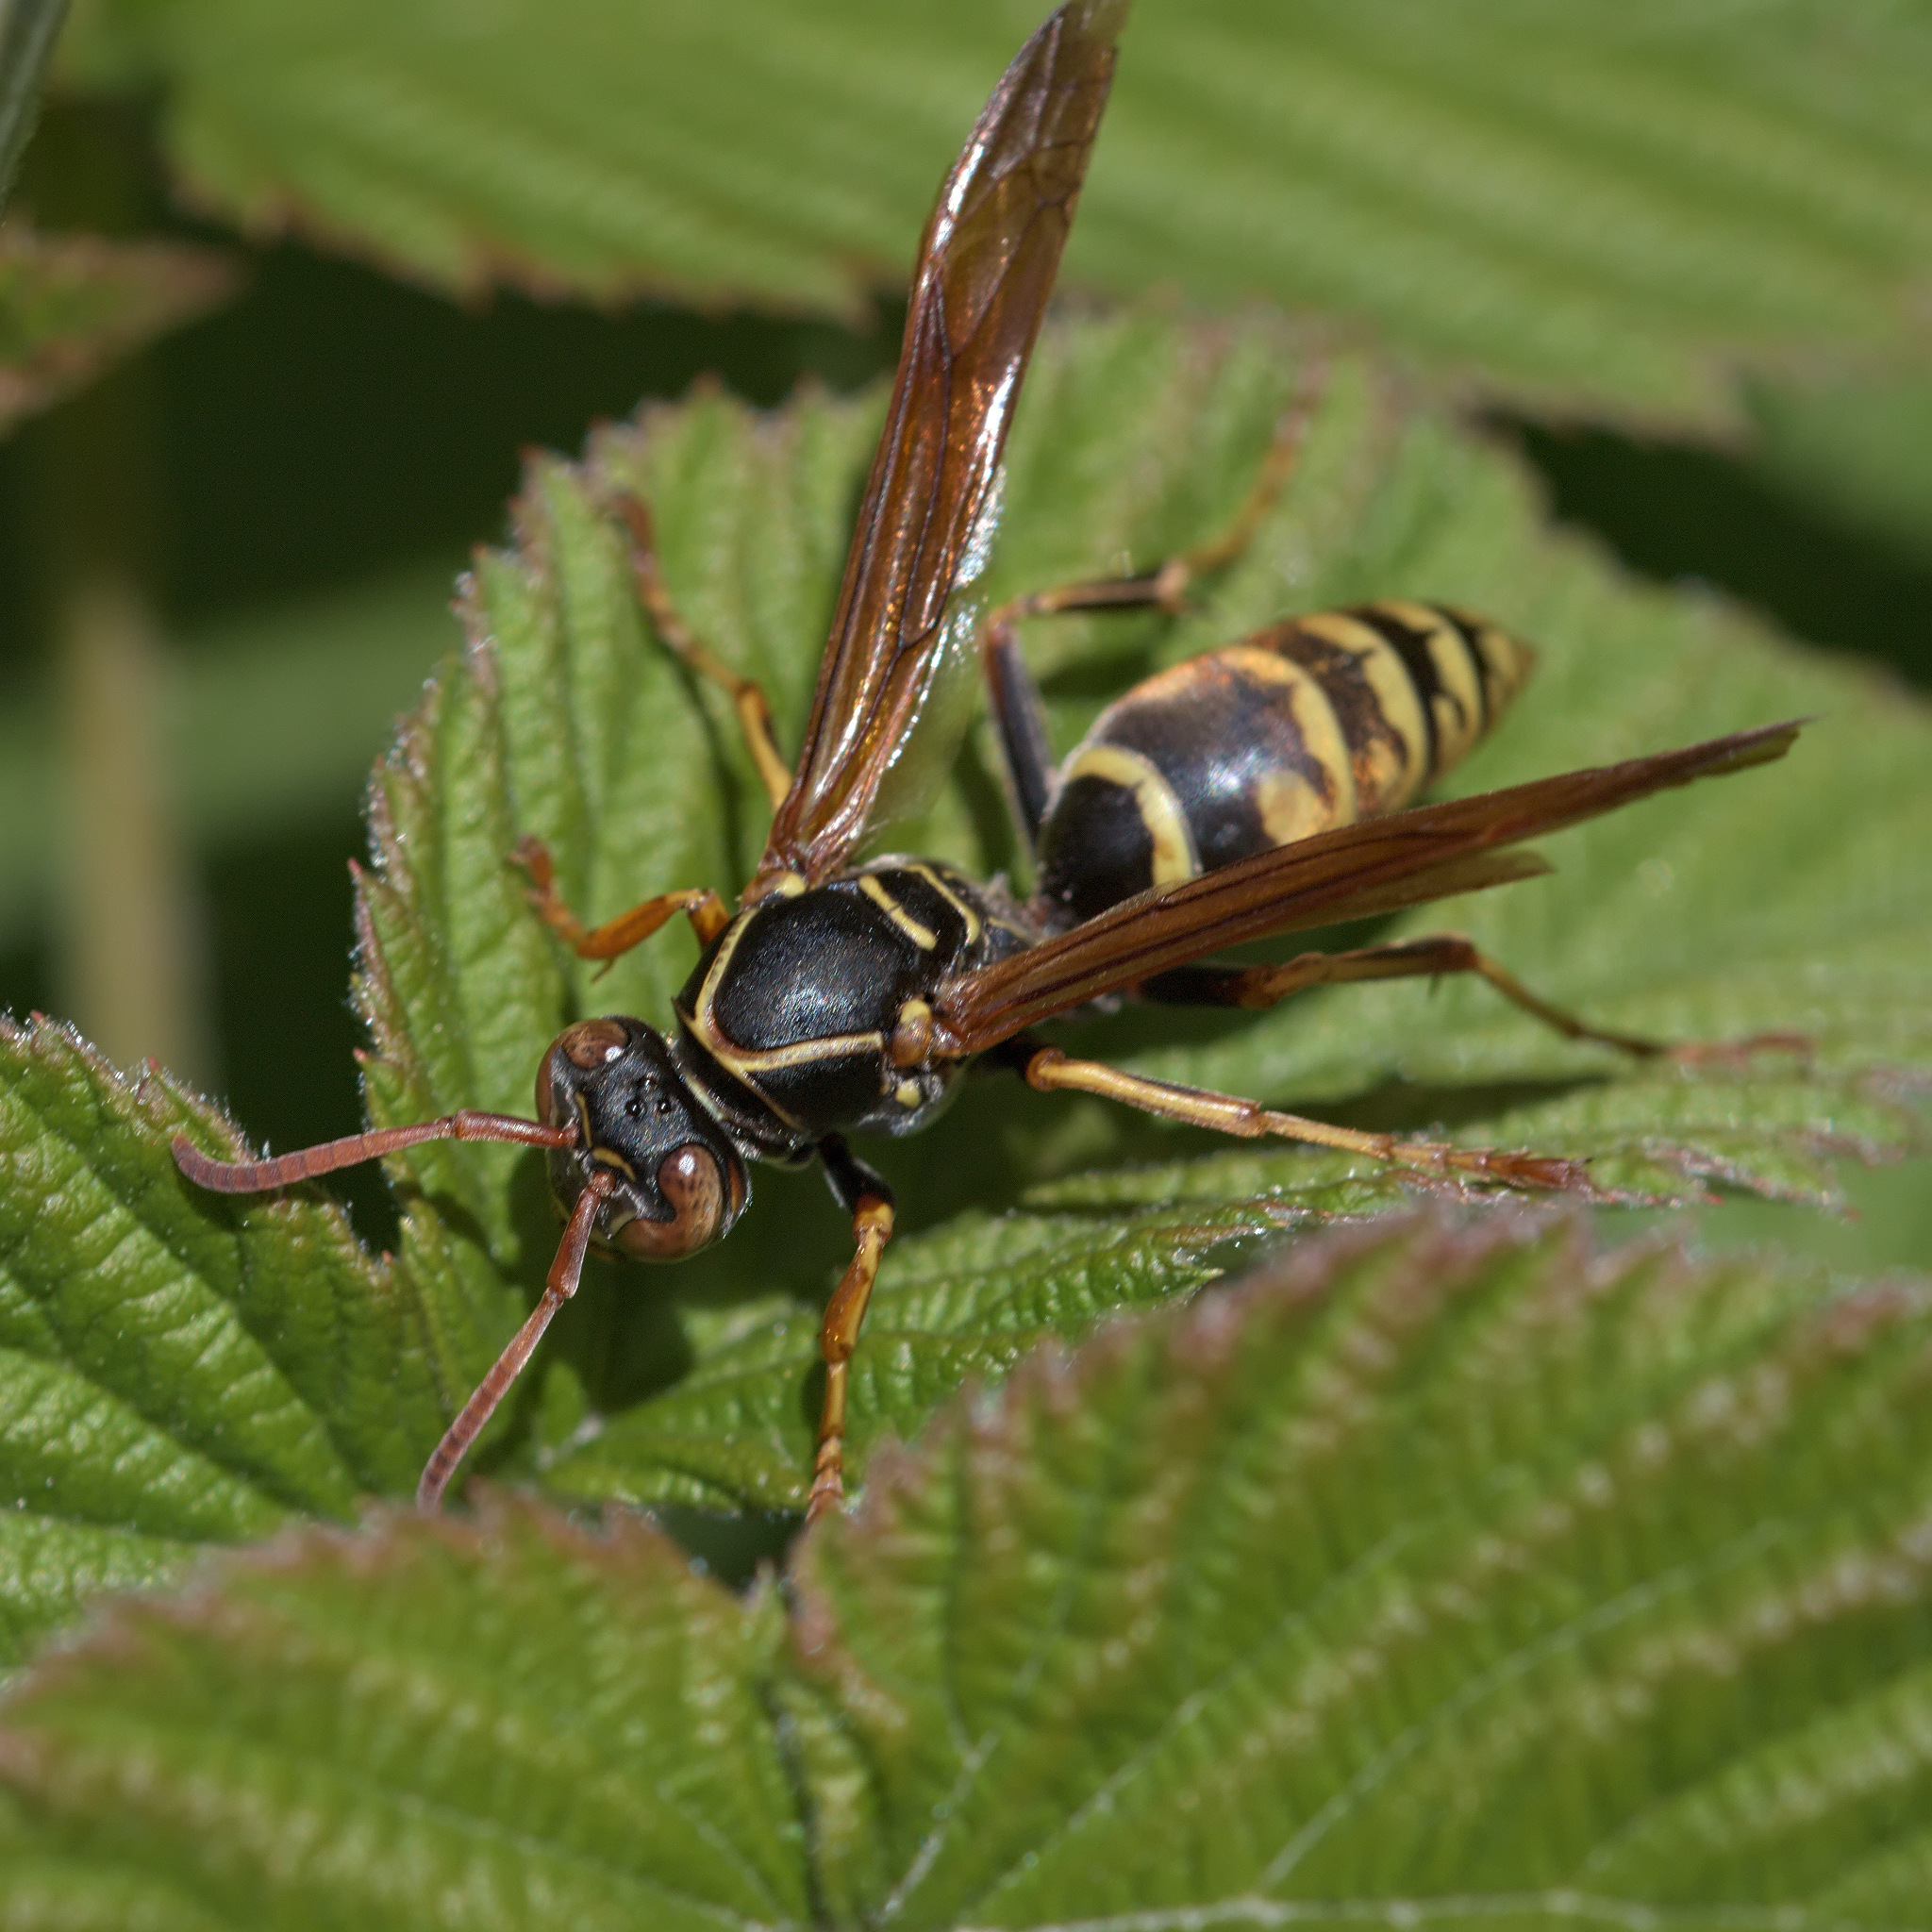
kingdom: Animalia
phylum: Arthropoda
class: Insecta
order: Hymenoptera
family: Eumenidae
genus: Polistes
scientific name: Polistes aurifer
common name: Paper wasp
